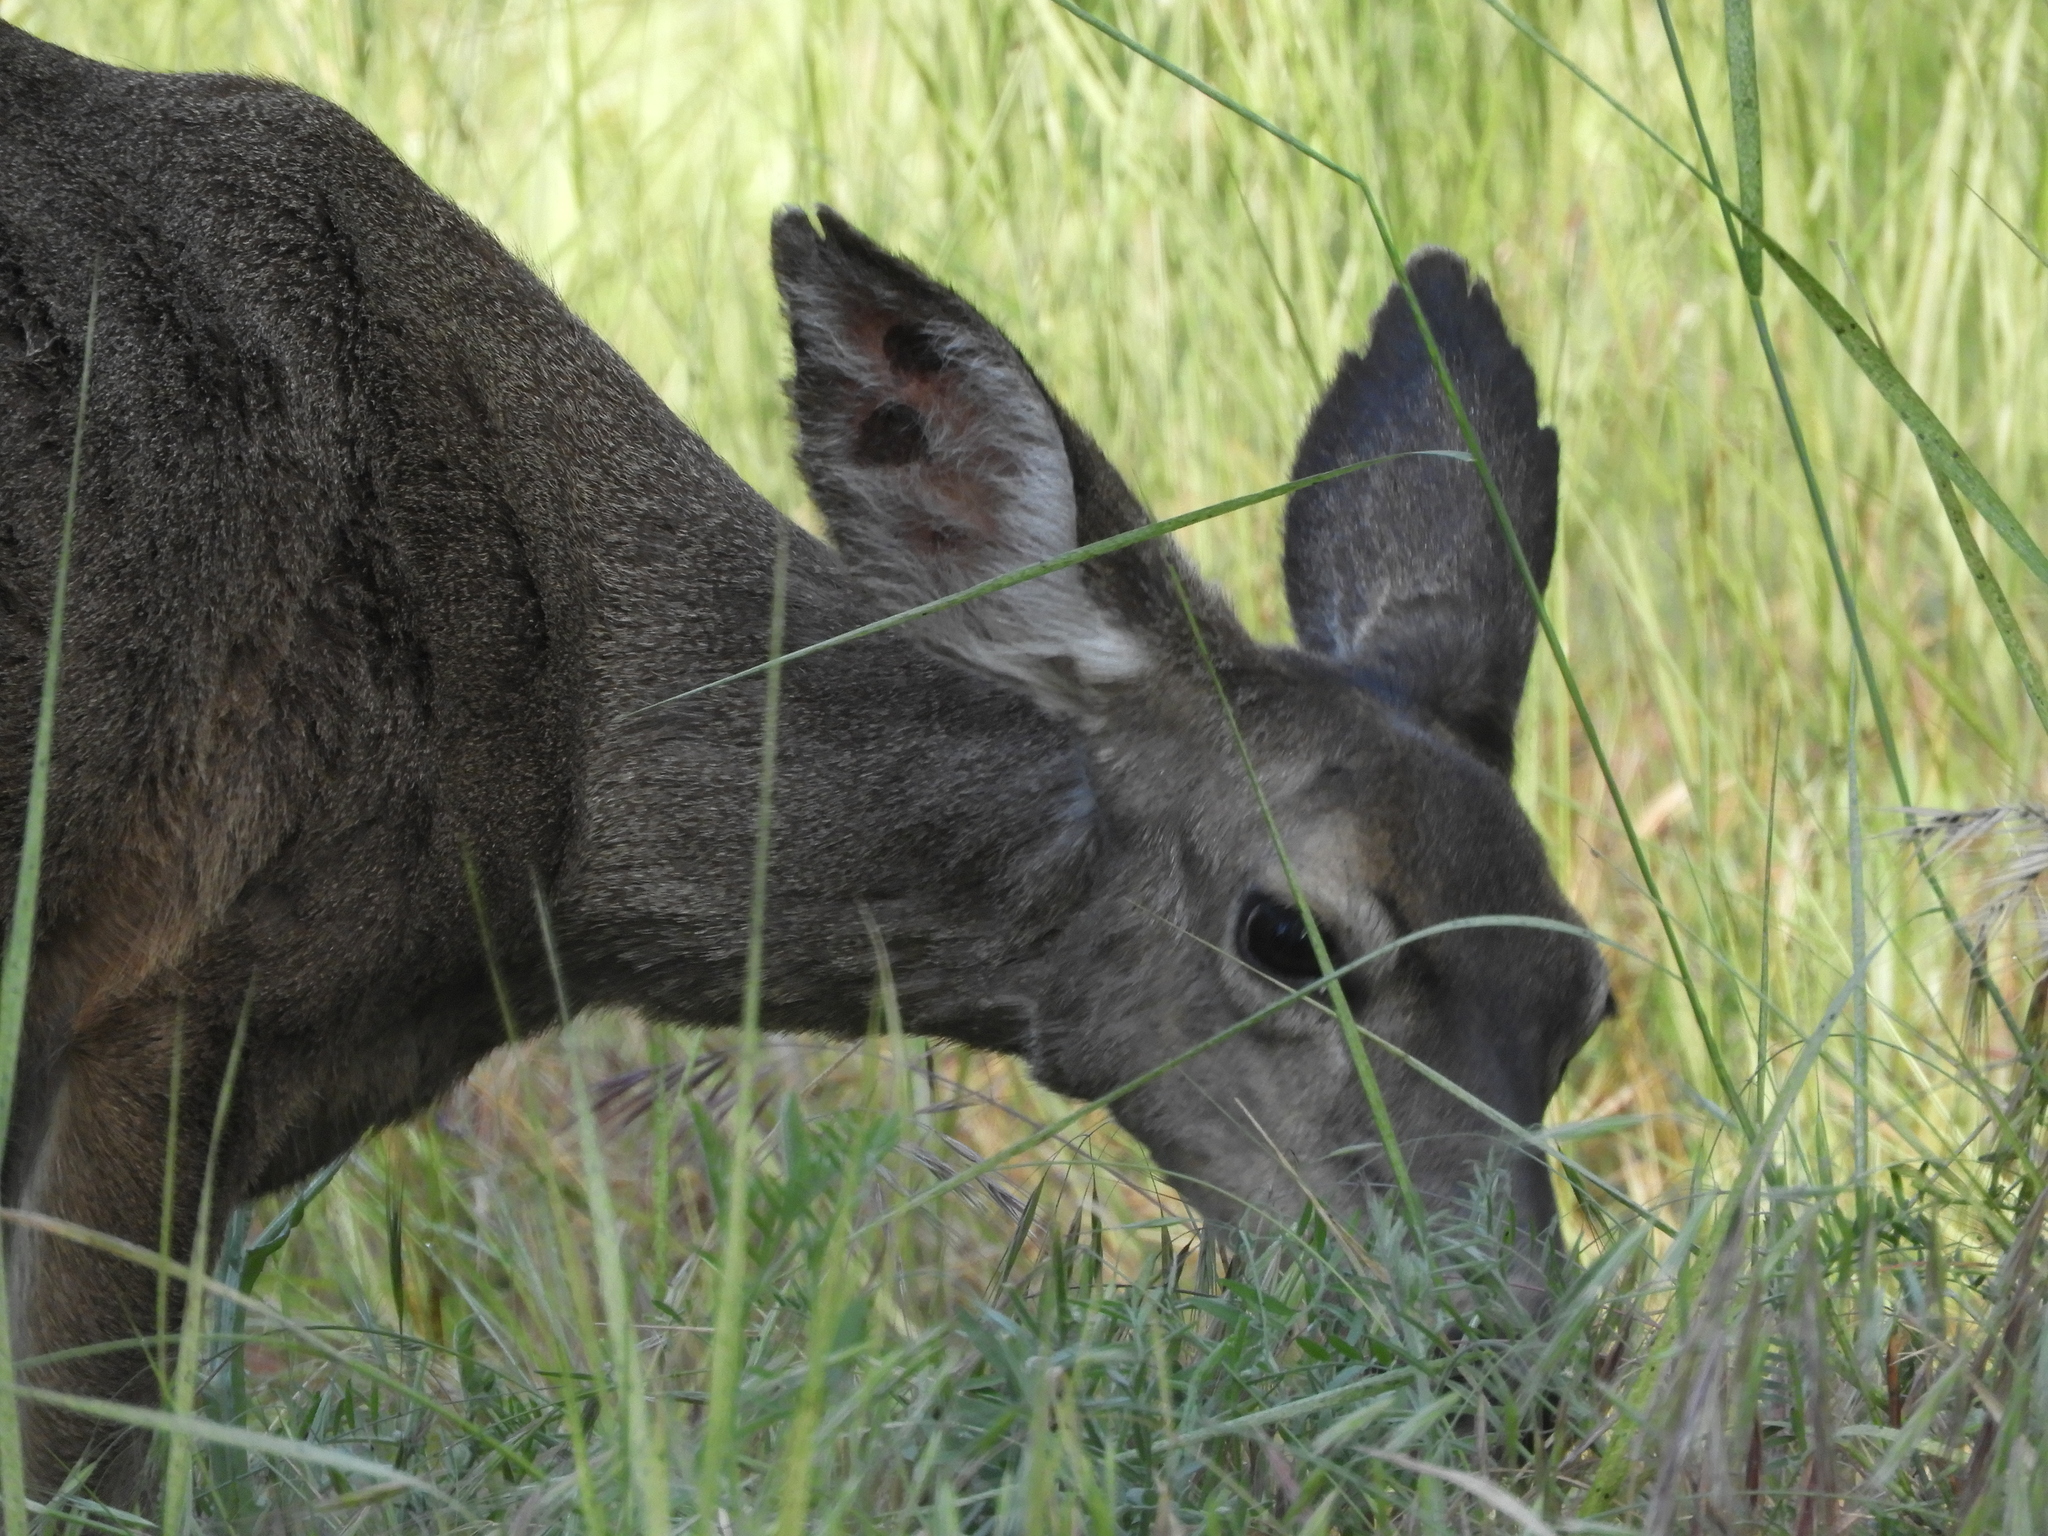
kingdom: Animalia
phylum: Chordata
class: Mammalia
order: Artiodactyla
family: Cervidae
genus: Odocoileus
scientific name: Odocoileus hemionus
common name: Mule deer
